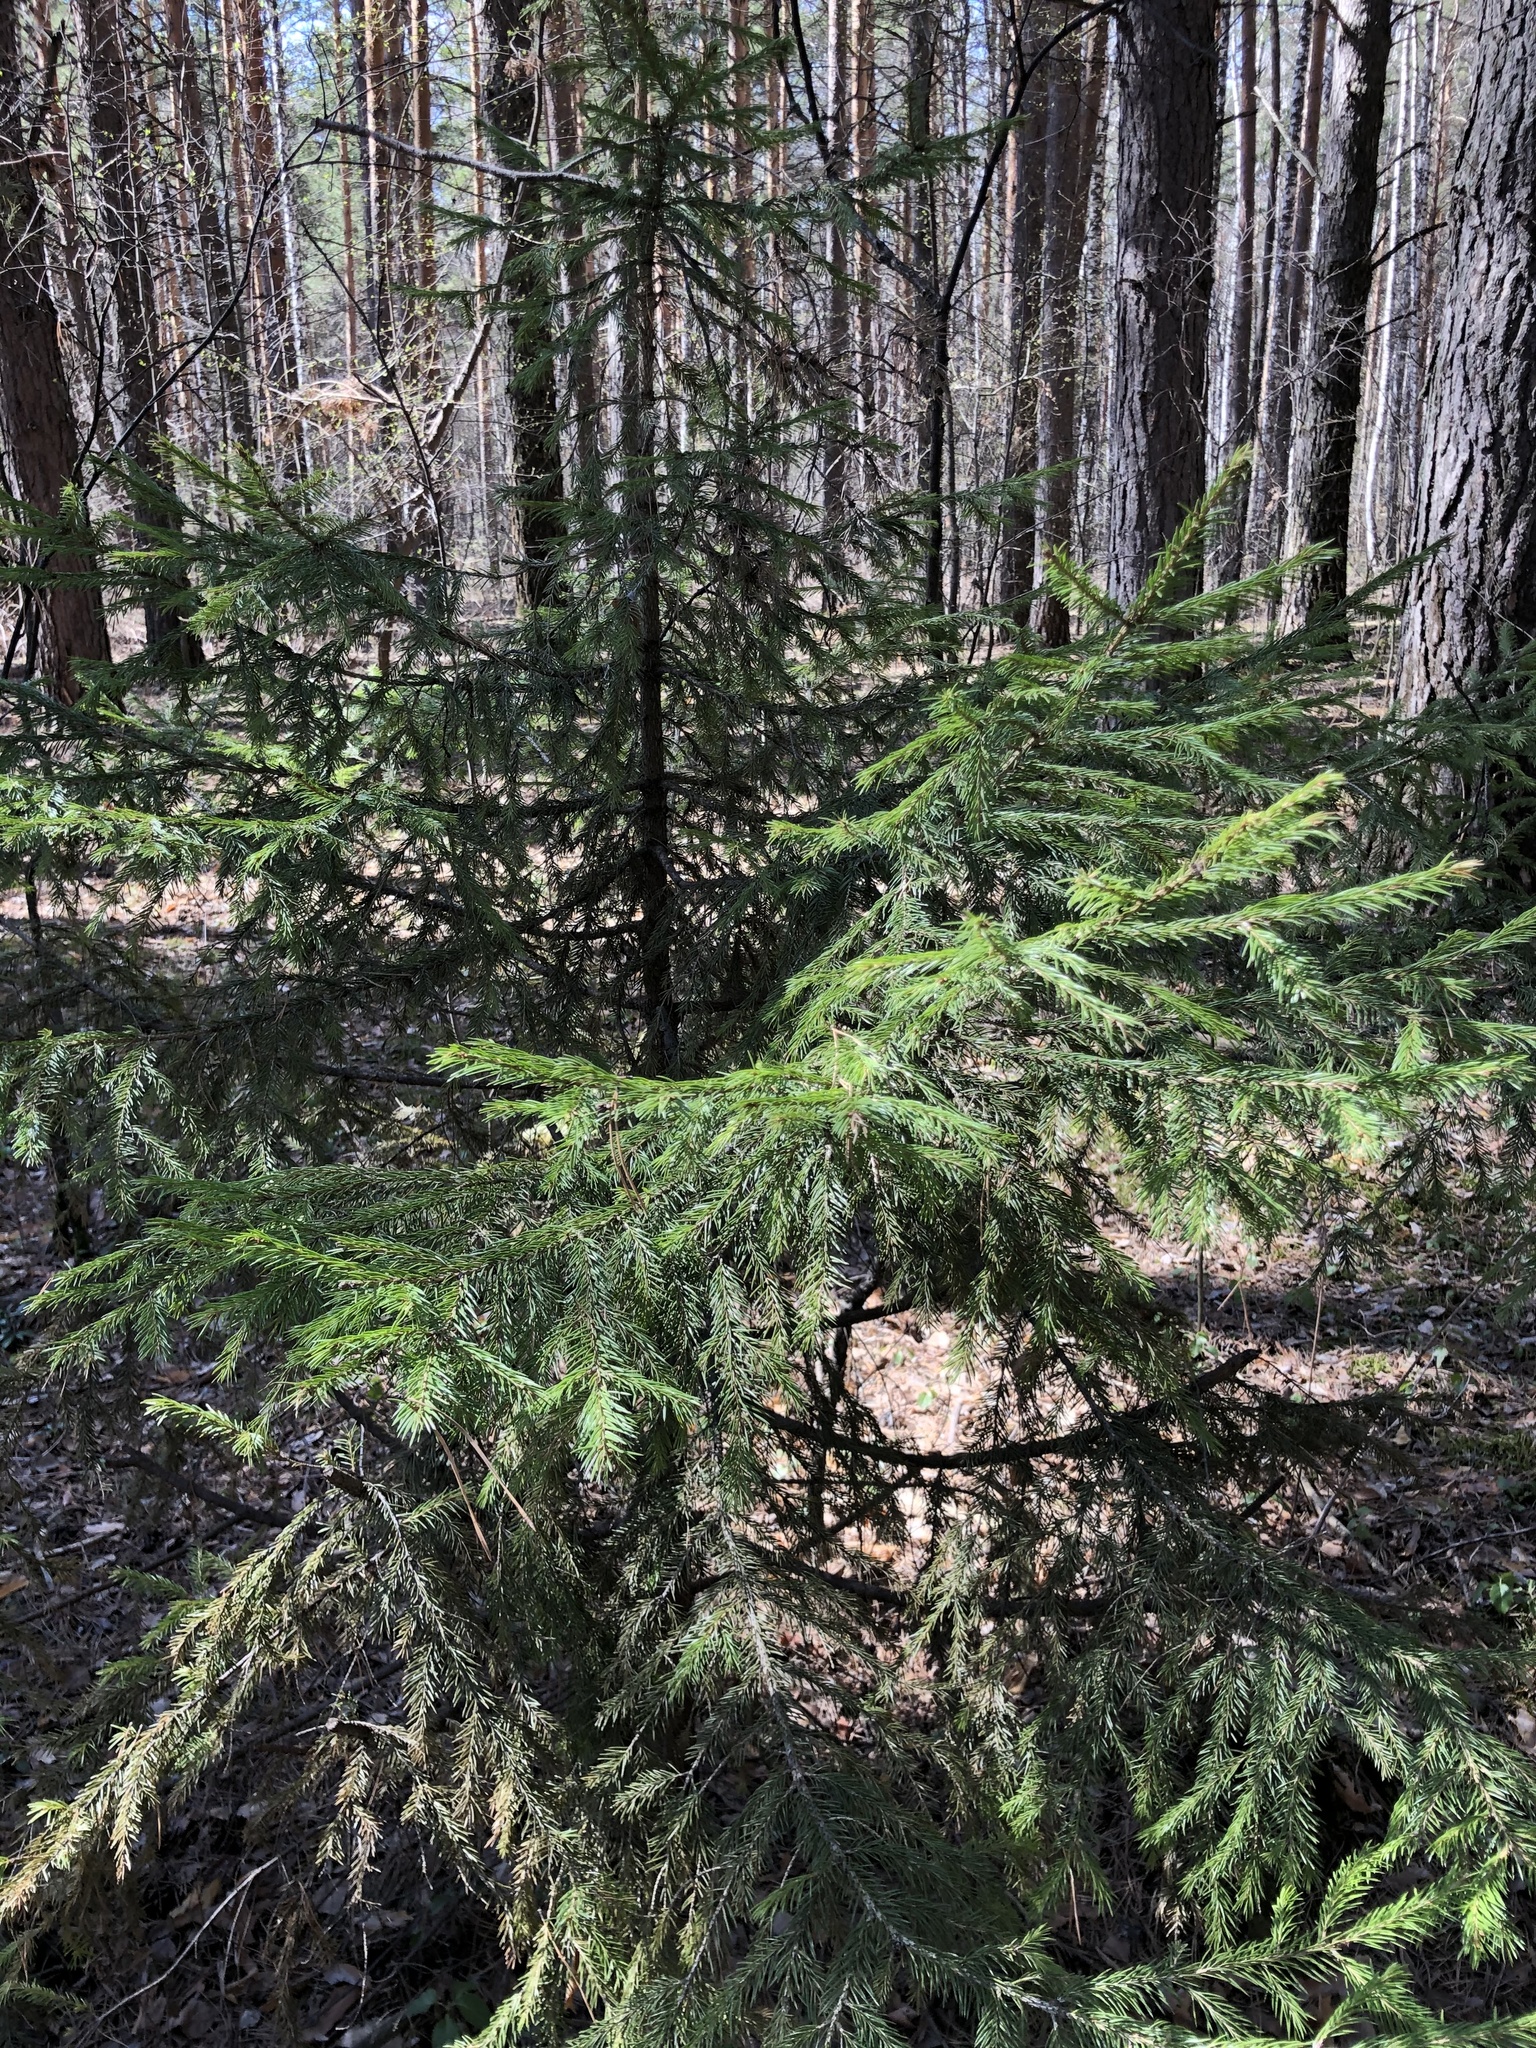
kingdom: Plantae
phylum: Tracheophyta
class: Pinopsida
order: Pinales
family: Pinaceae
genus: Picea
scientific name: Picea obovata
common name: Siberian spruce
